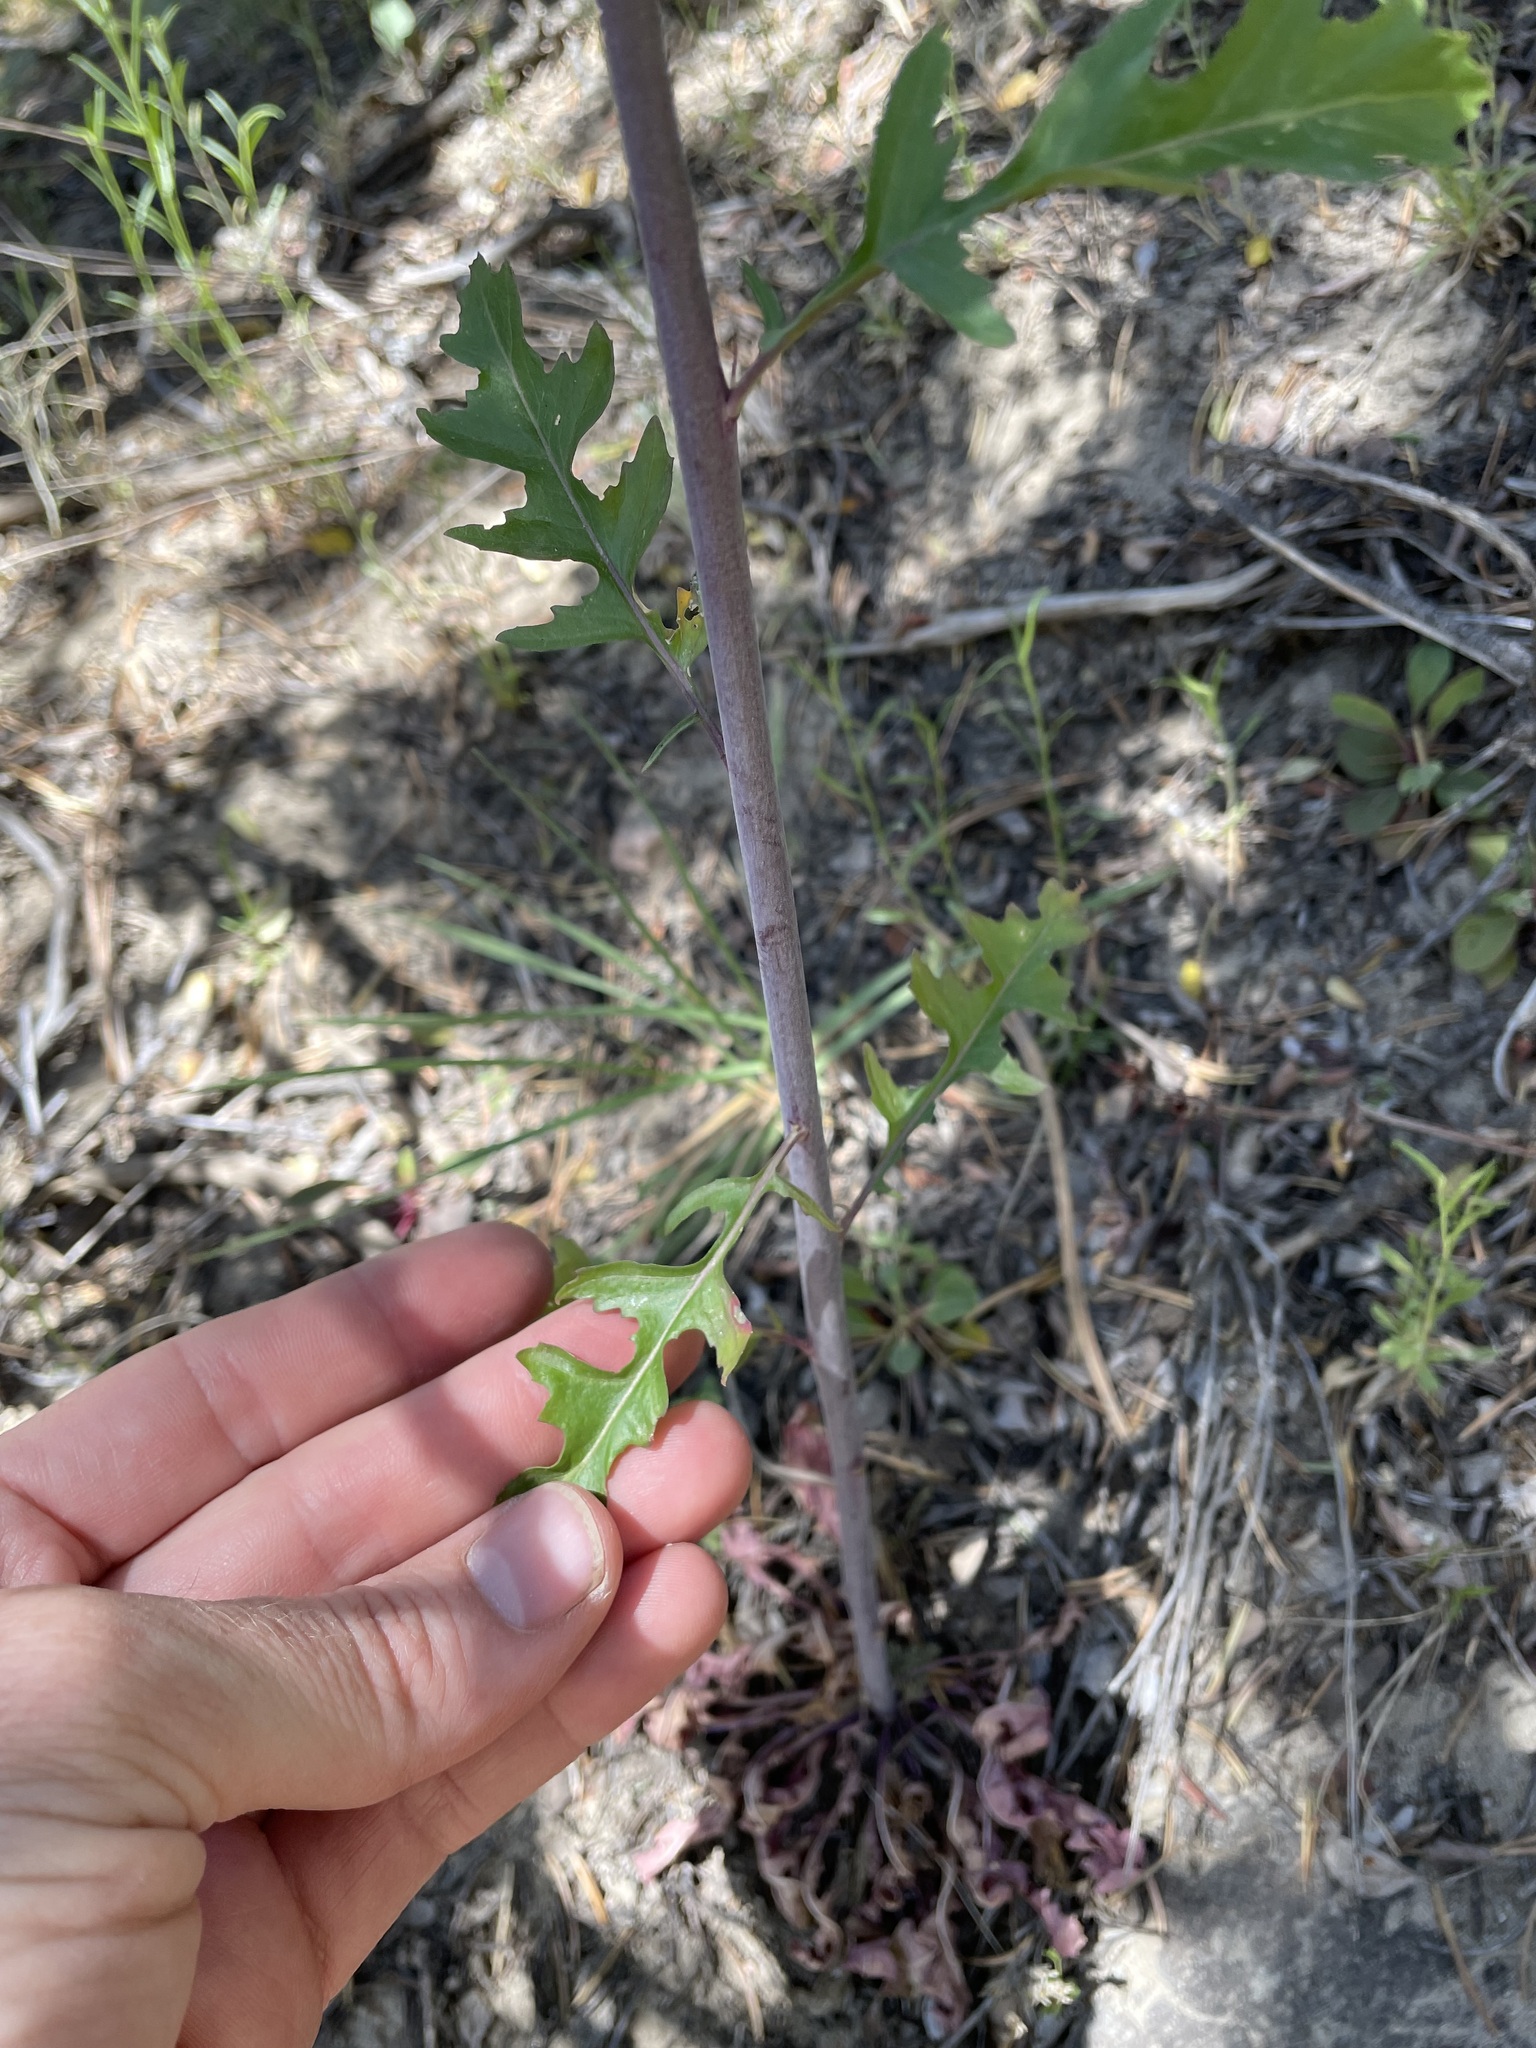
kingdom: Plantae
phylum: Tracheophyta
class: Magnoliopsida
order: Brassicales
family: Brassicaceae
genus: Thelypodium
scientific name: Thelypodium wrightii
